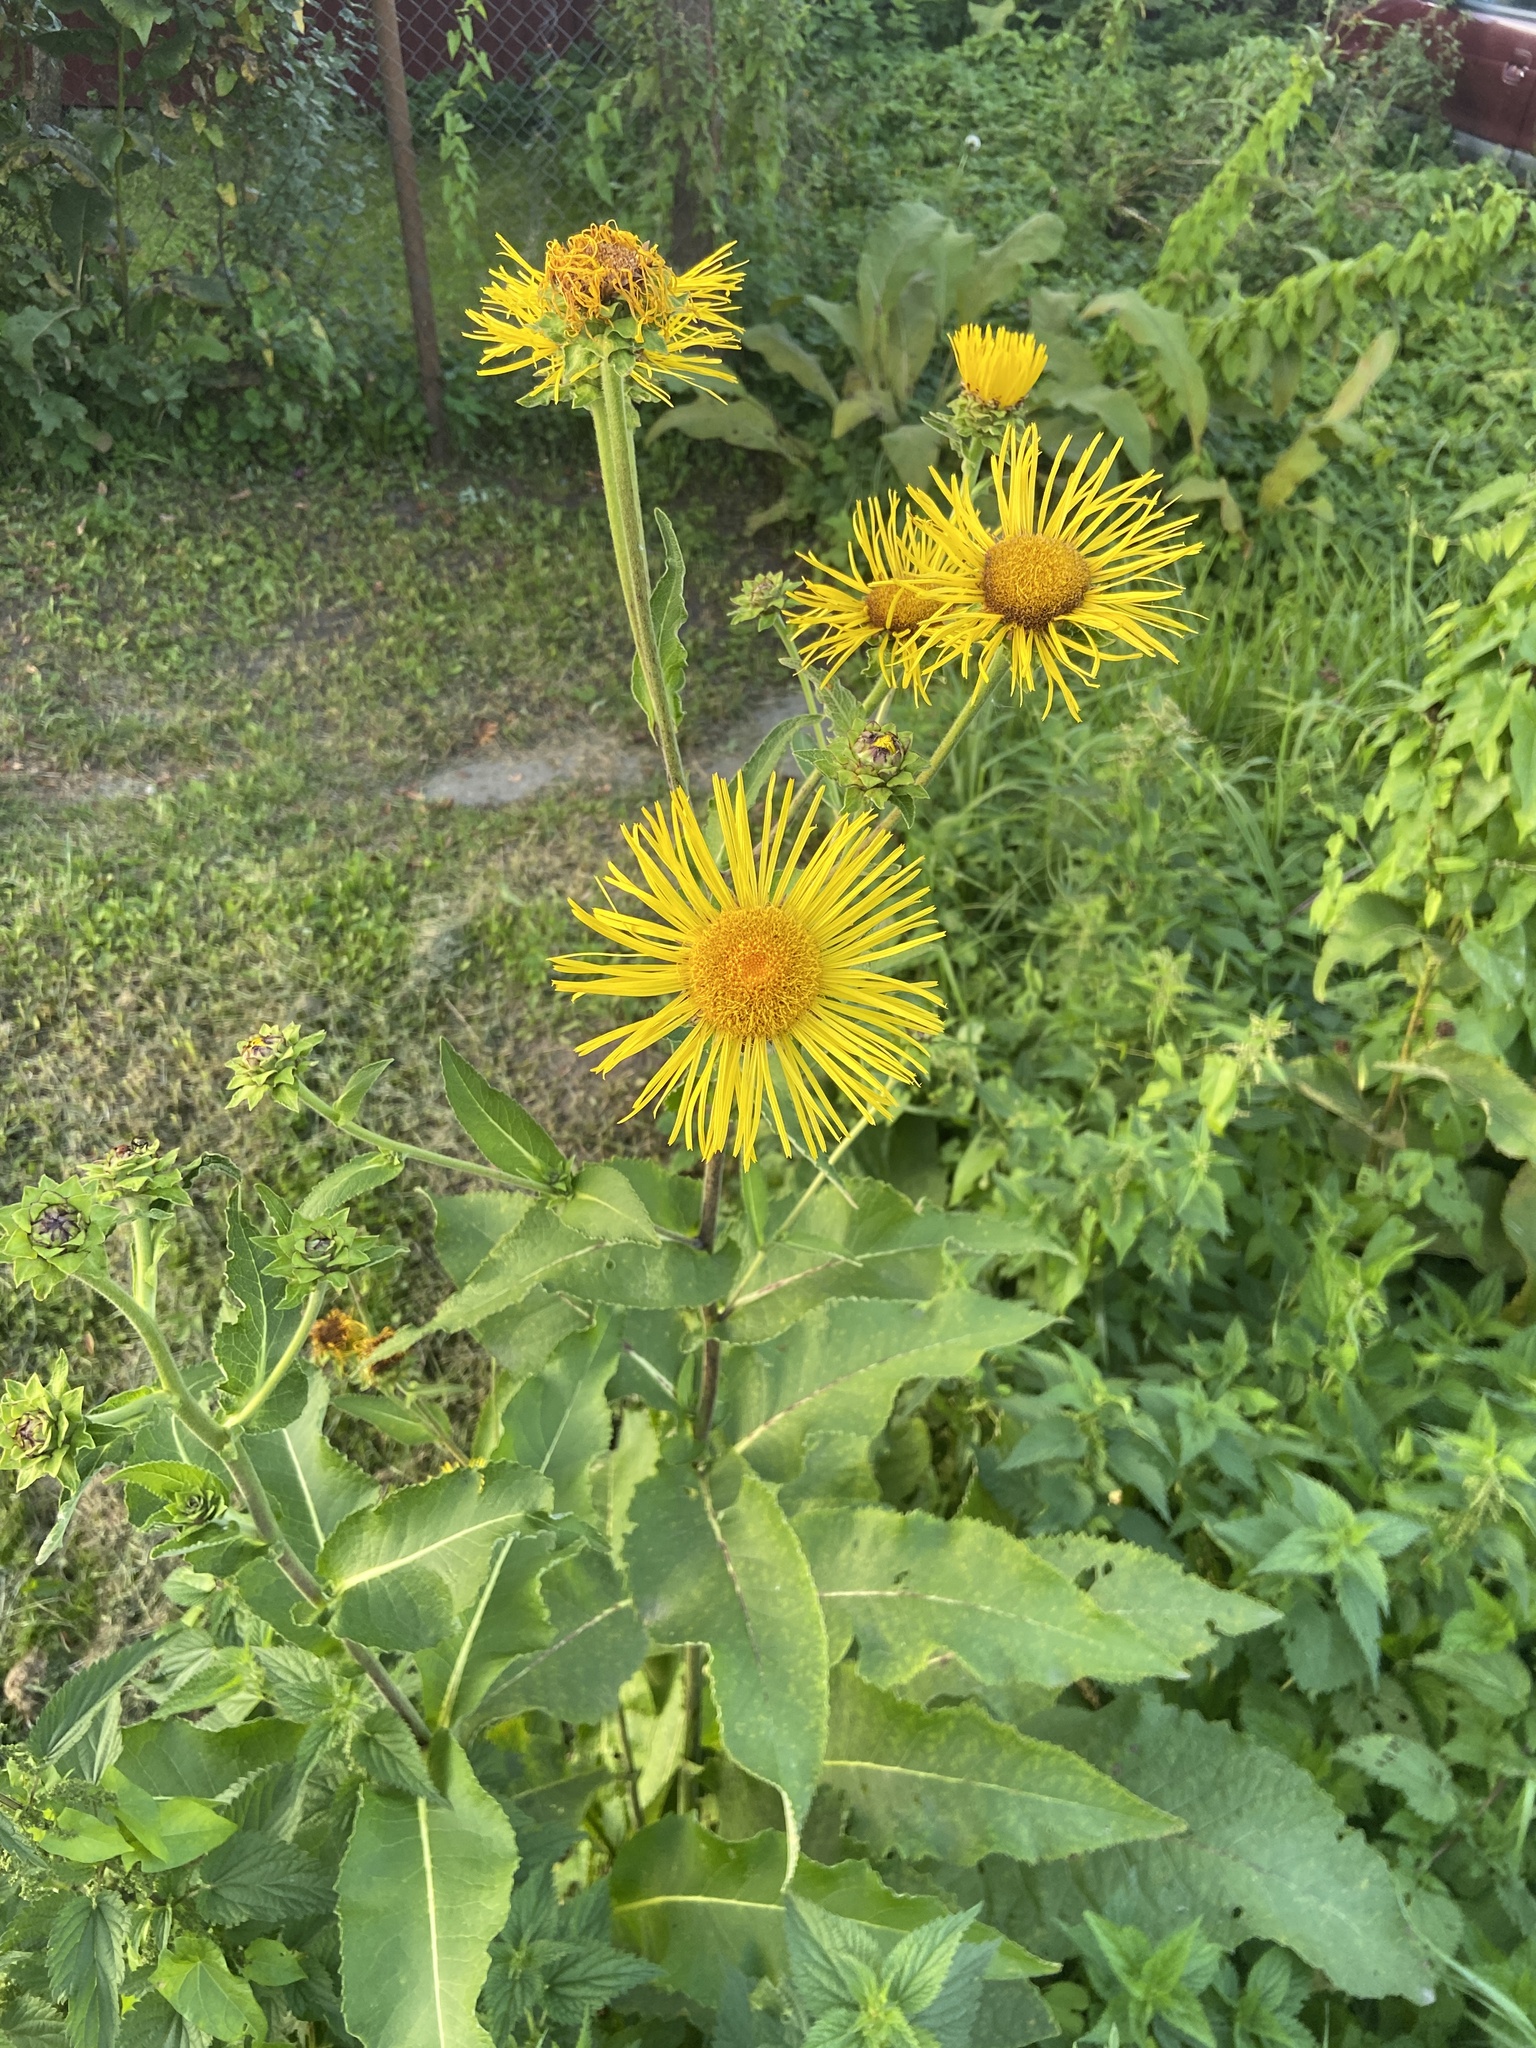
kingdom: Plantae
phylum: Tracheophyta
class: Magnoliopsida
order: Asterales
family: Asteraceae
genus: Inula
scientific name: Inula helenium
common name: Elecampane
